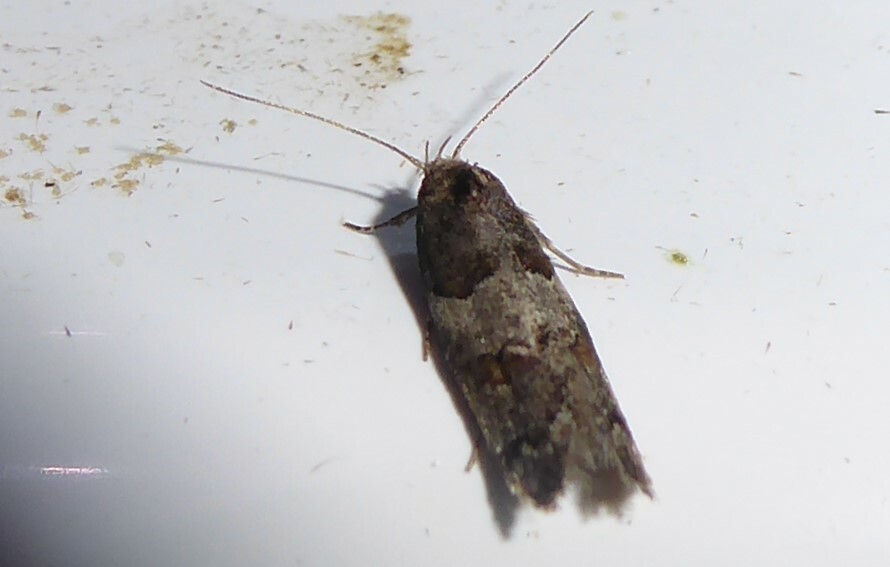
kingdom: Animalia
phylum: Arthropoda
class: Insecta
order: Lepidoptera
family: Oecophoridae
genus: Trachypepla
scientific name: Trachypepla contritella
